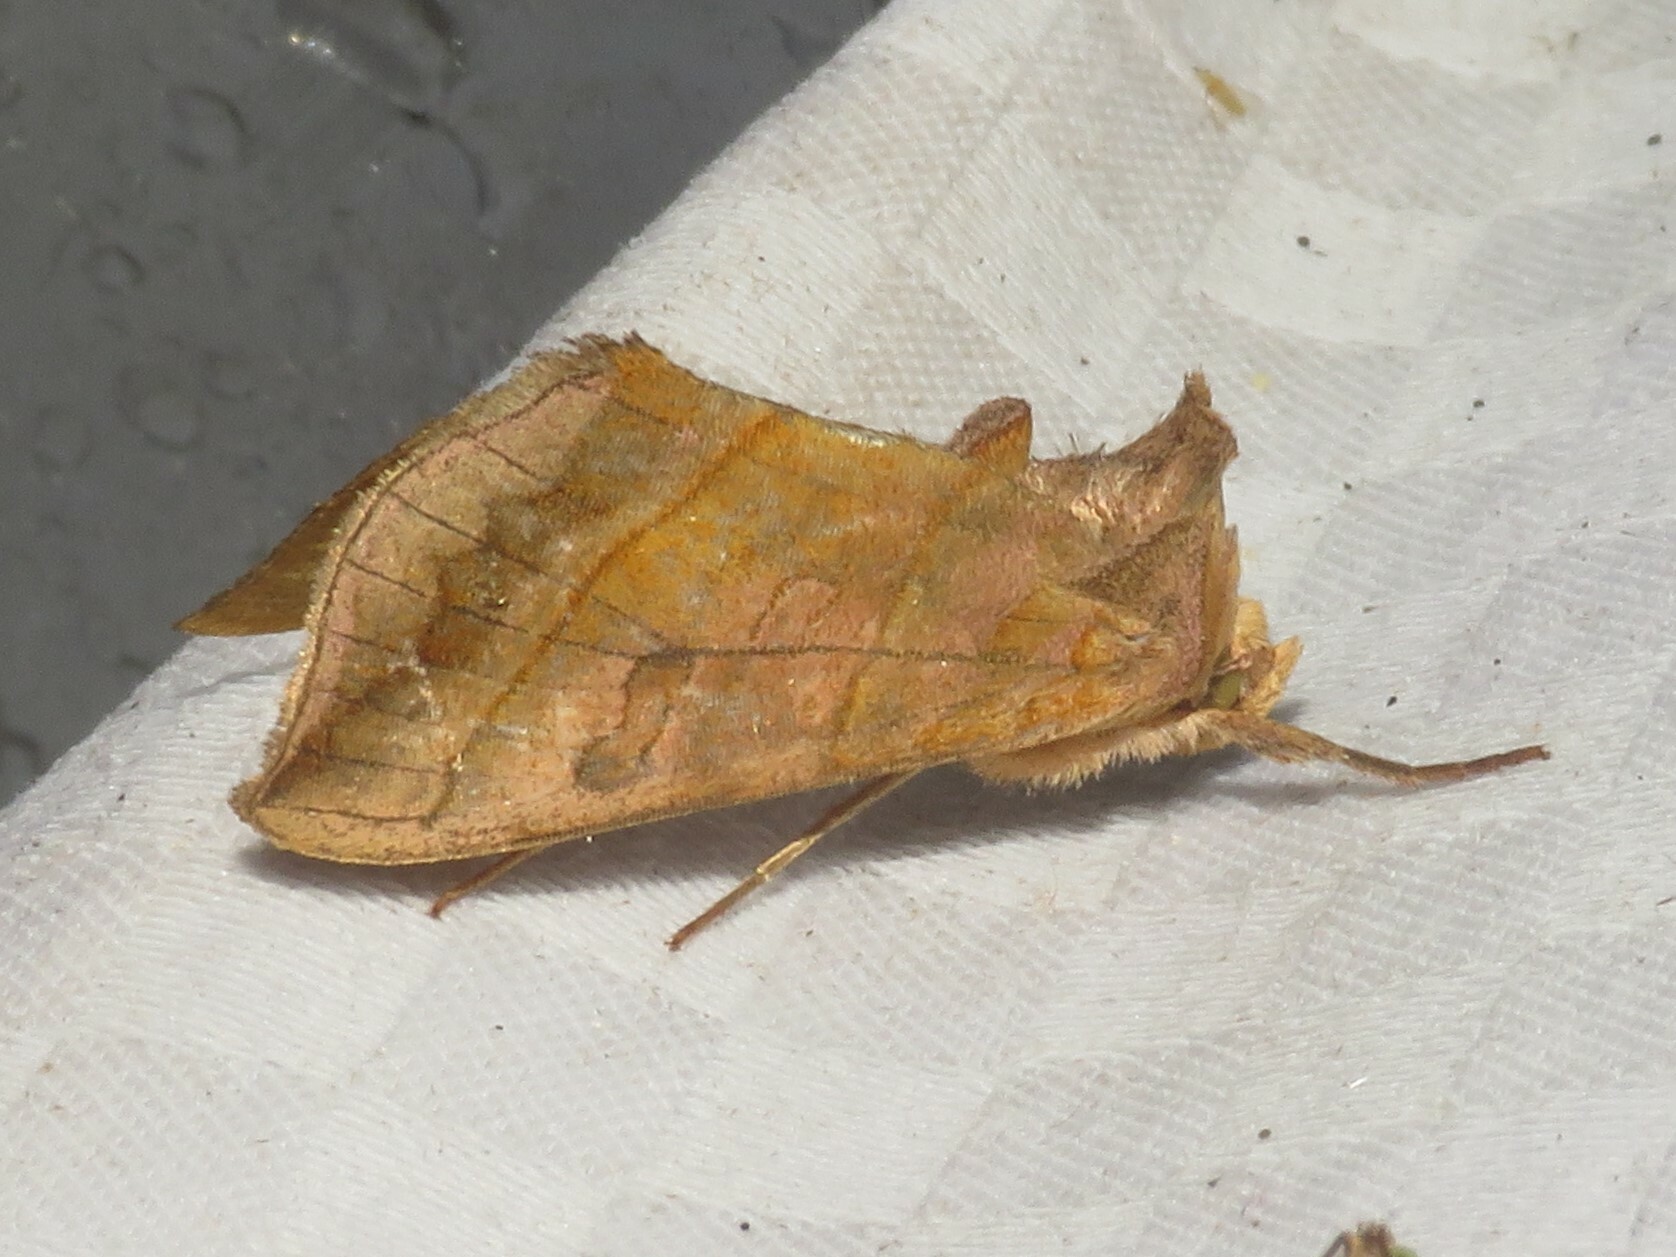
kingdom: Animalia
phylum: Arthropoda
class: Insecta
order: Lepidoptera
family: Noctuidae
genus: Diachrysia
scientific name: Diachrysia aereoides
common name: Dark-spotted looper moth
